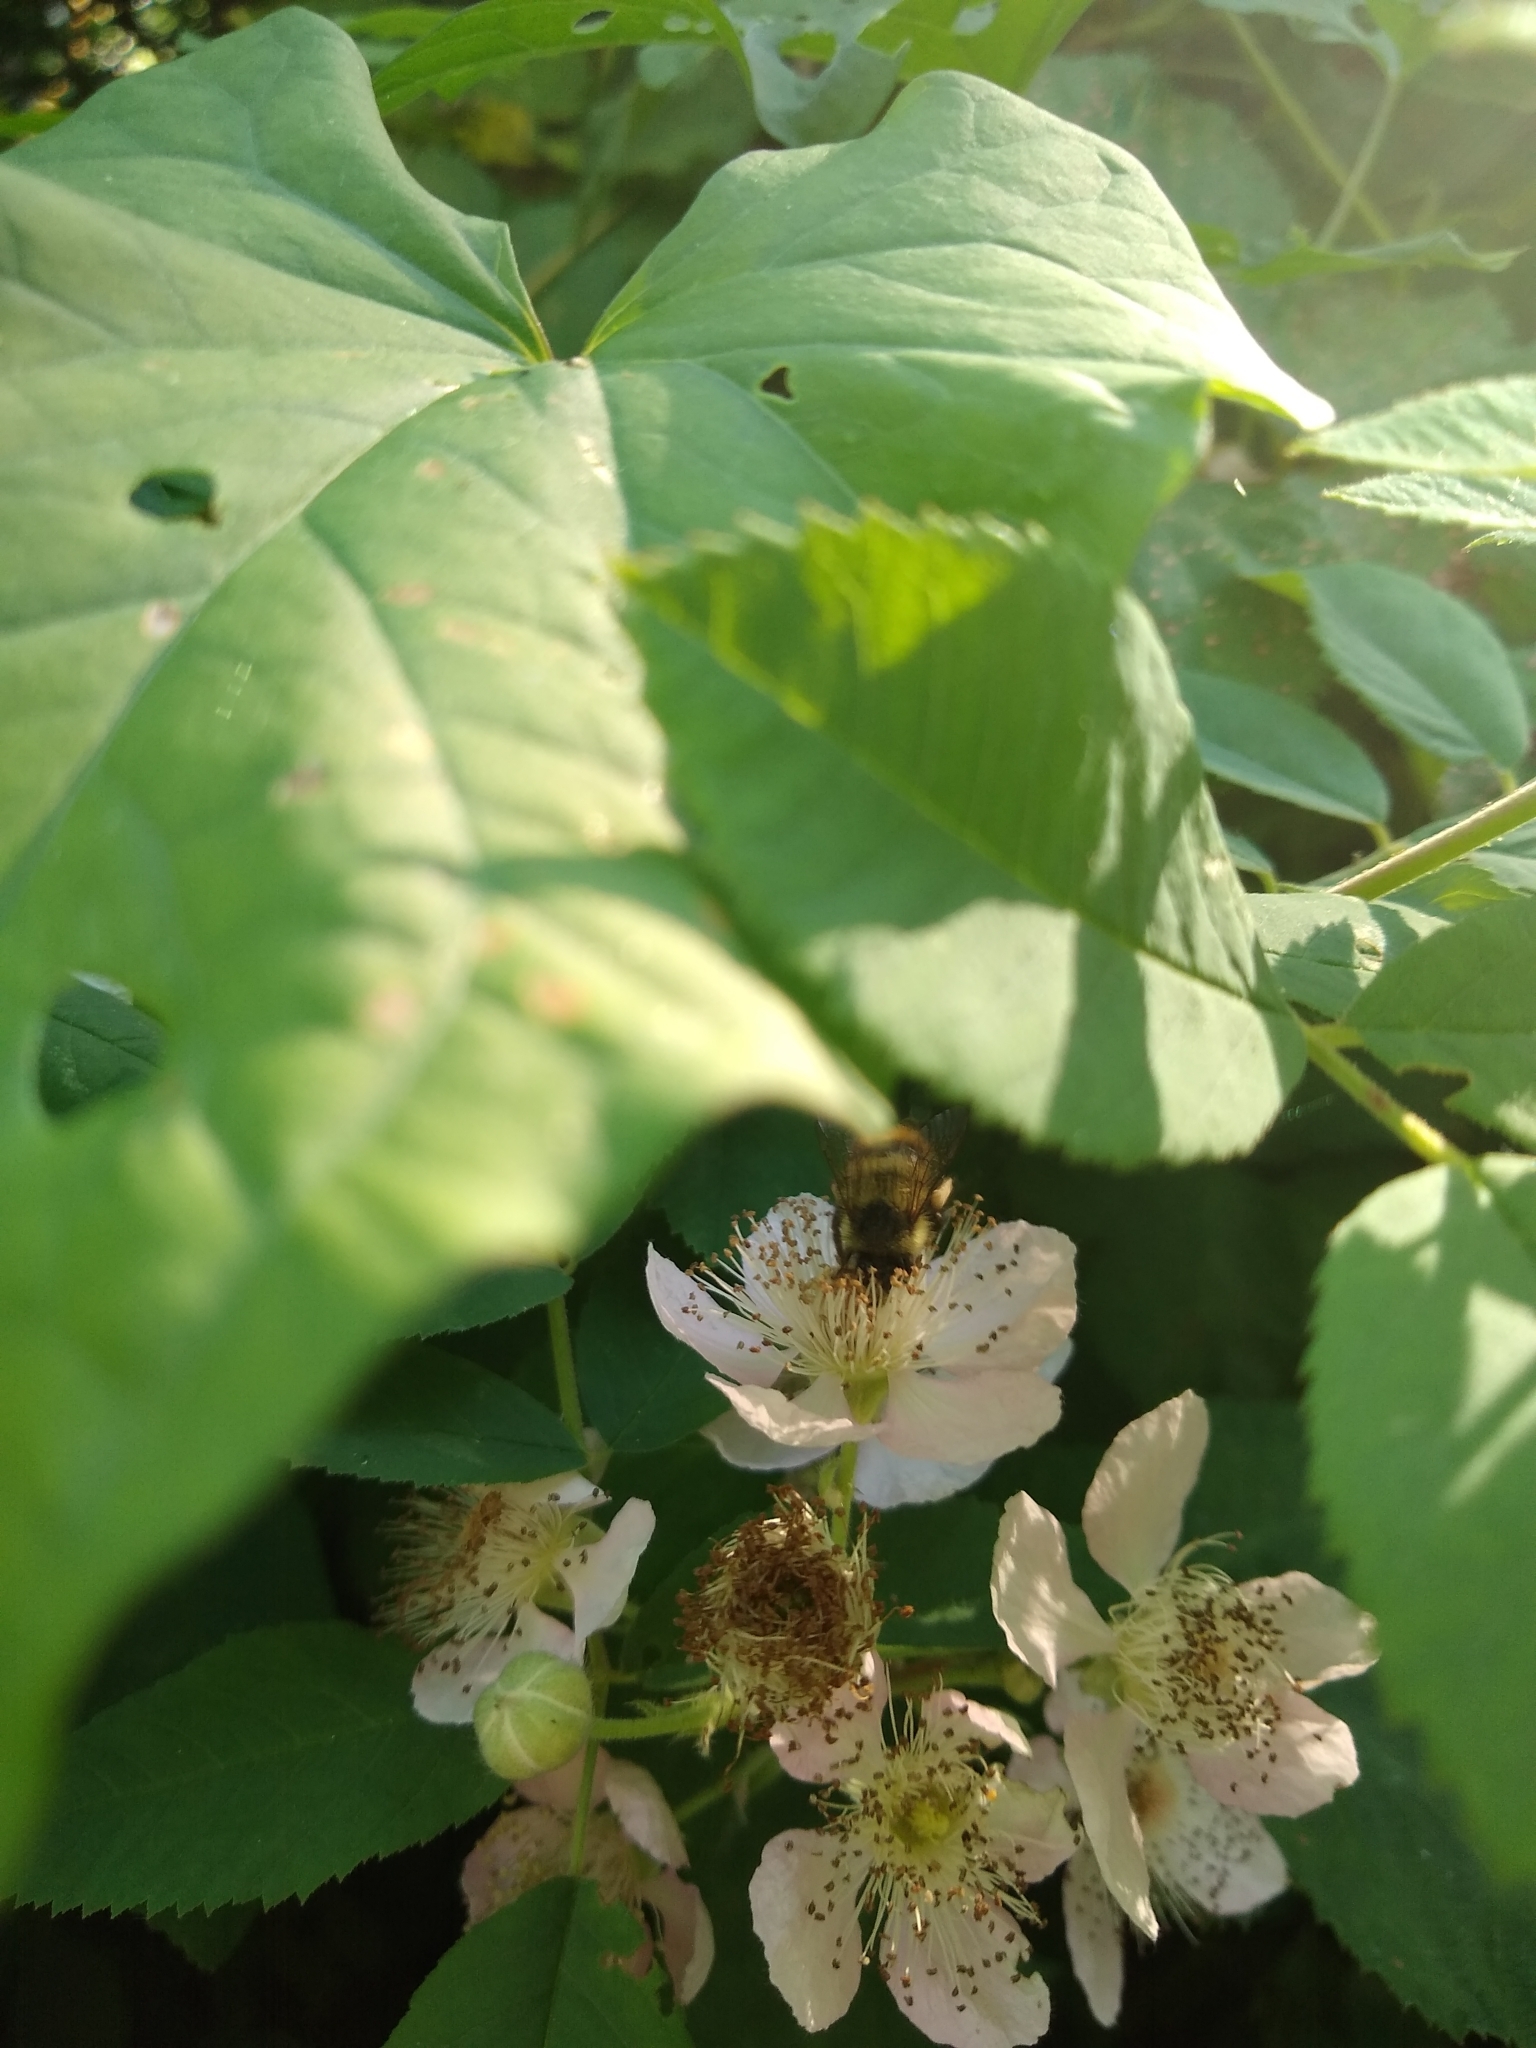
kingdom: Animalia
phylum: Arthropoda
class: Insecta
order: Hymenoptera
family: Apidae
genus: Bombus
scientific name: Bombus mixtus
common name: Fuzzy-horned bumble bee
